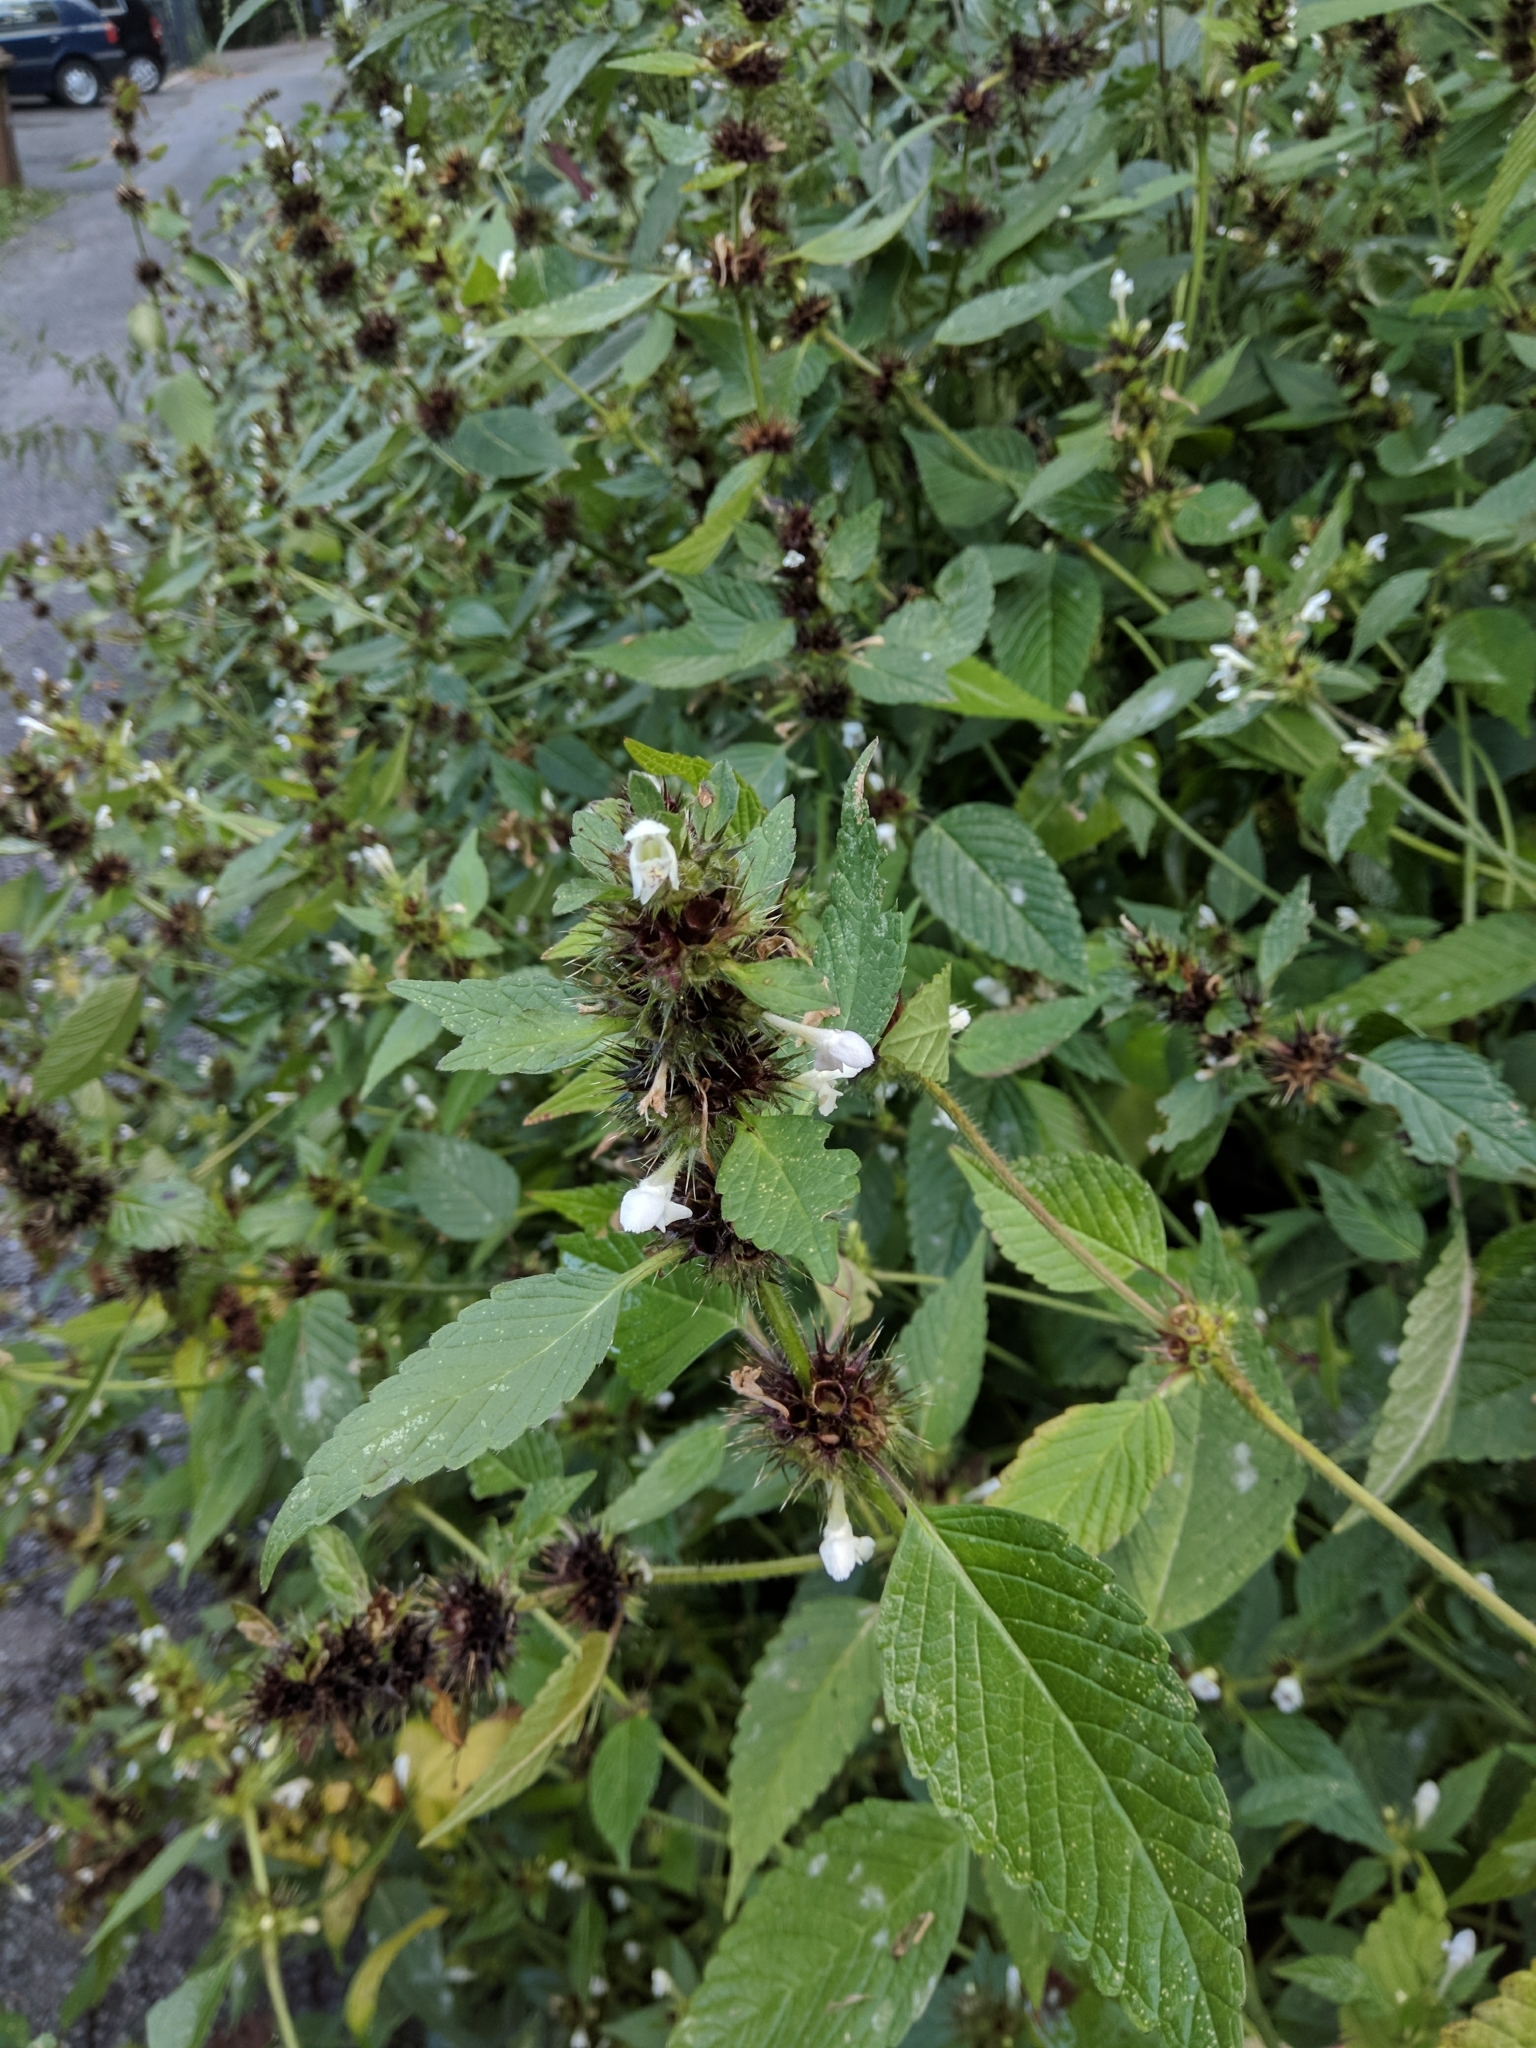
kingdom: Plantae
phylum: Tracheophyta
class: Magnoliopsida
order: Lamiales
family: Lamiaceae
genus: Galeopsis
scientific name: Galeopsis tetrahit
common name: Common hemp-nettle
